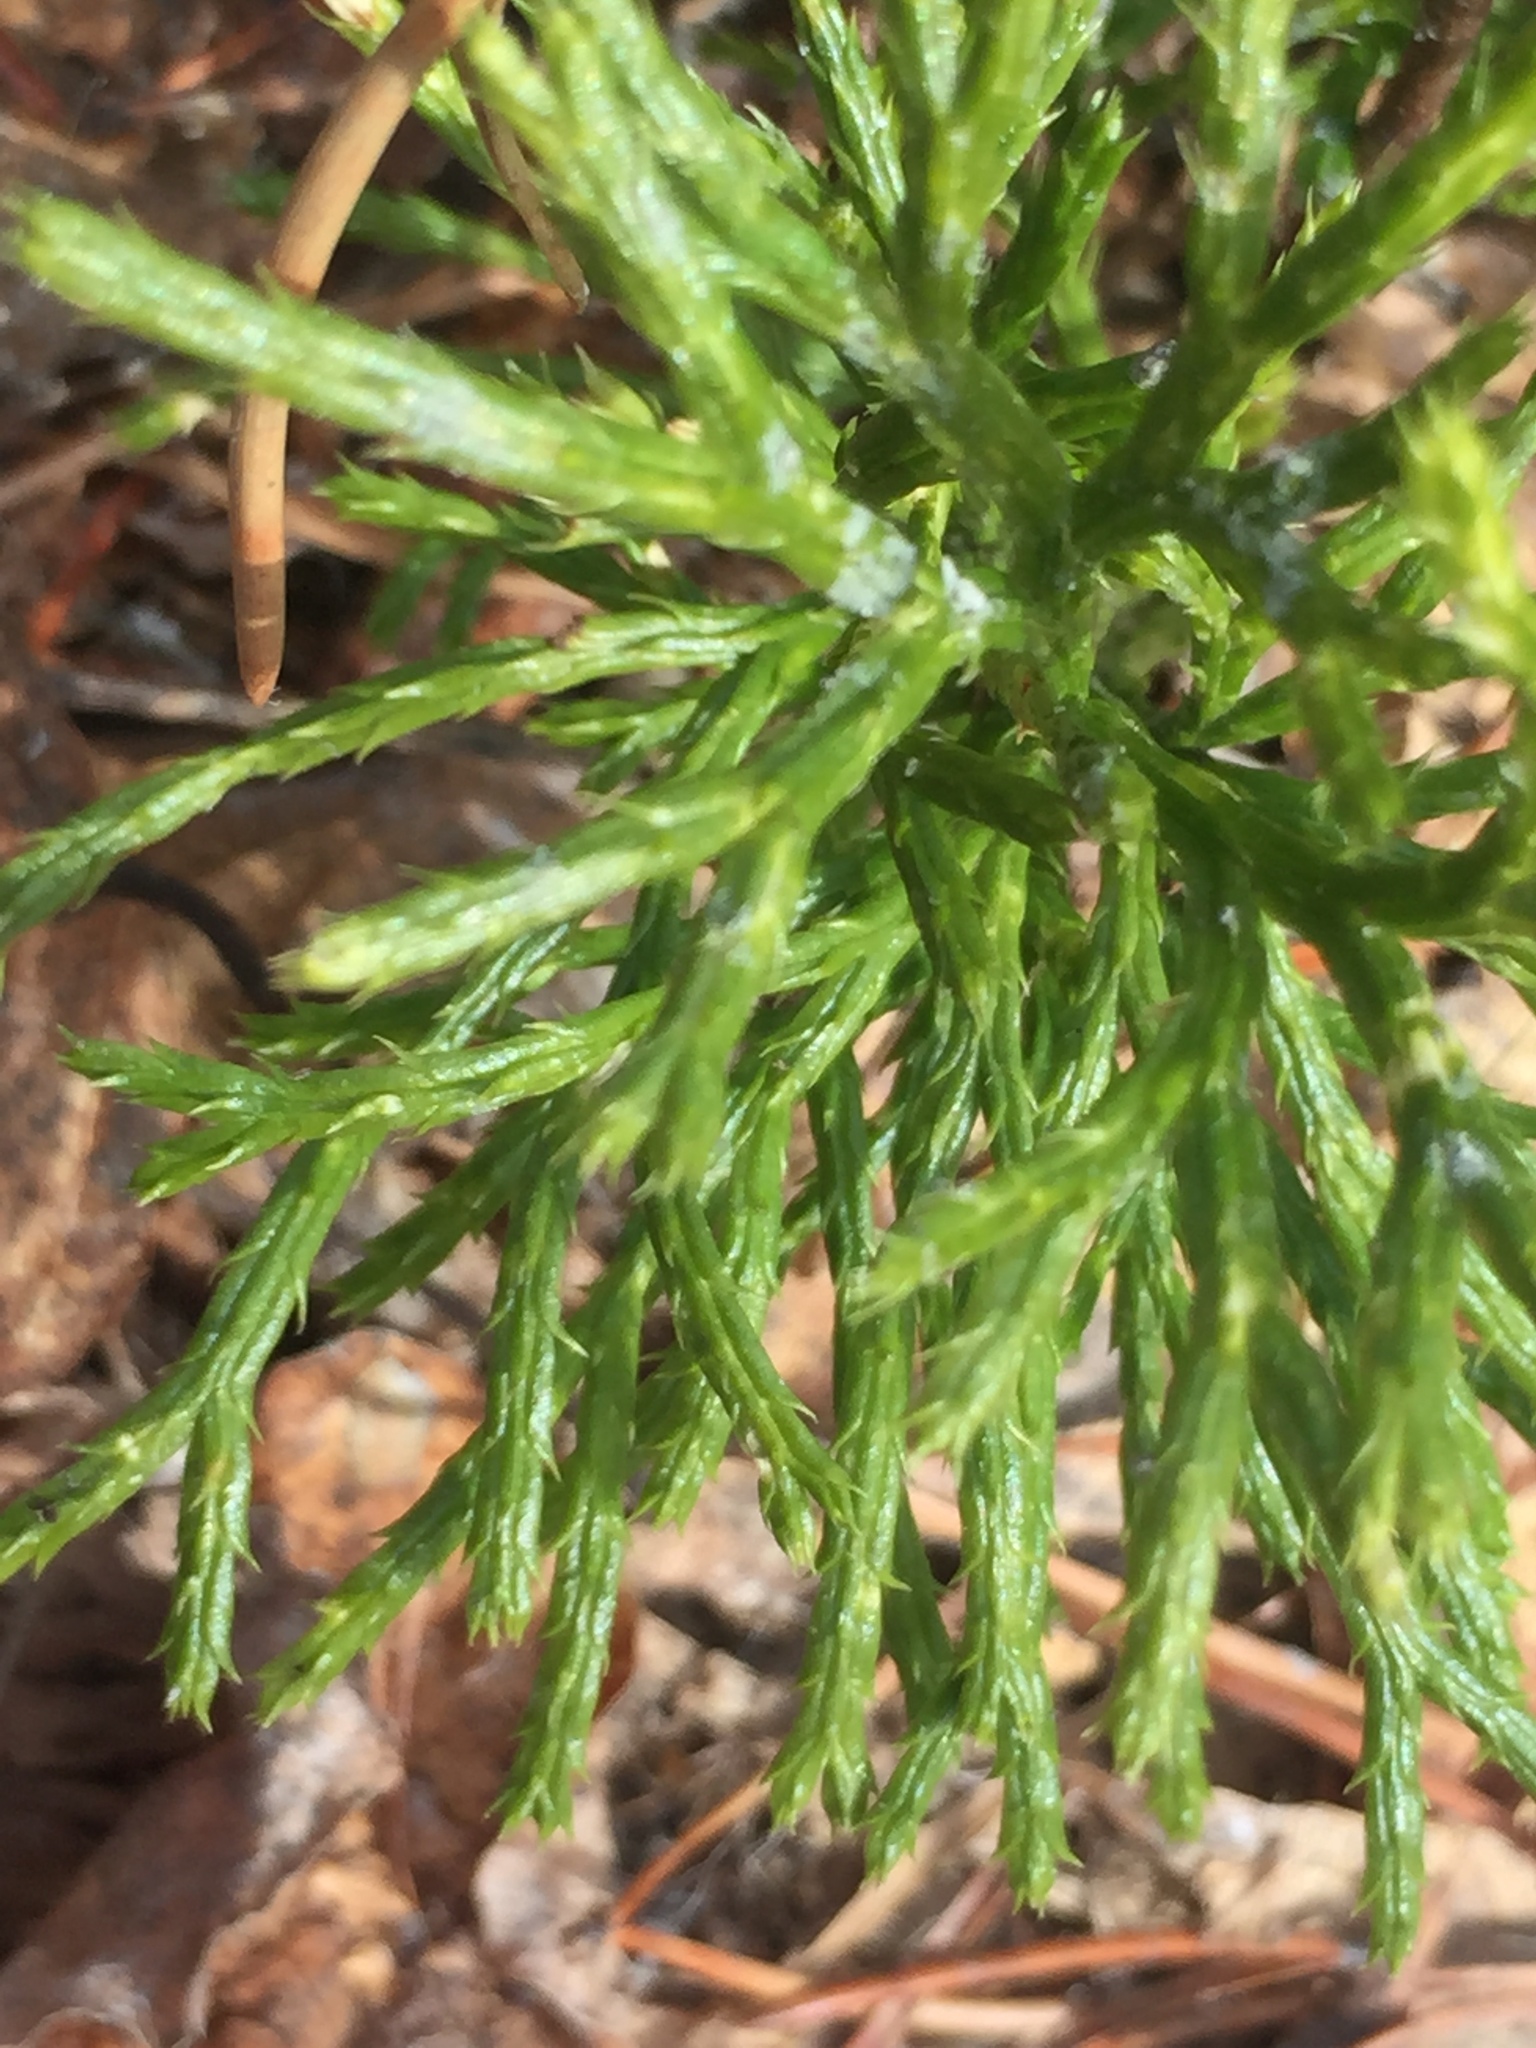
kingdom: Plantae
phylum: Tracheophyta
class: Lycopodiopsida
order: Lycopodiales
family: Lycopodiaceae
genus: Diphasiastrum
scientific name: Diphasiastrum complanatum
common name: Northern running-pine
